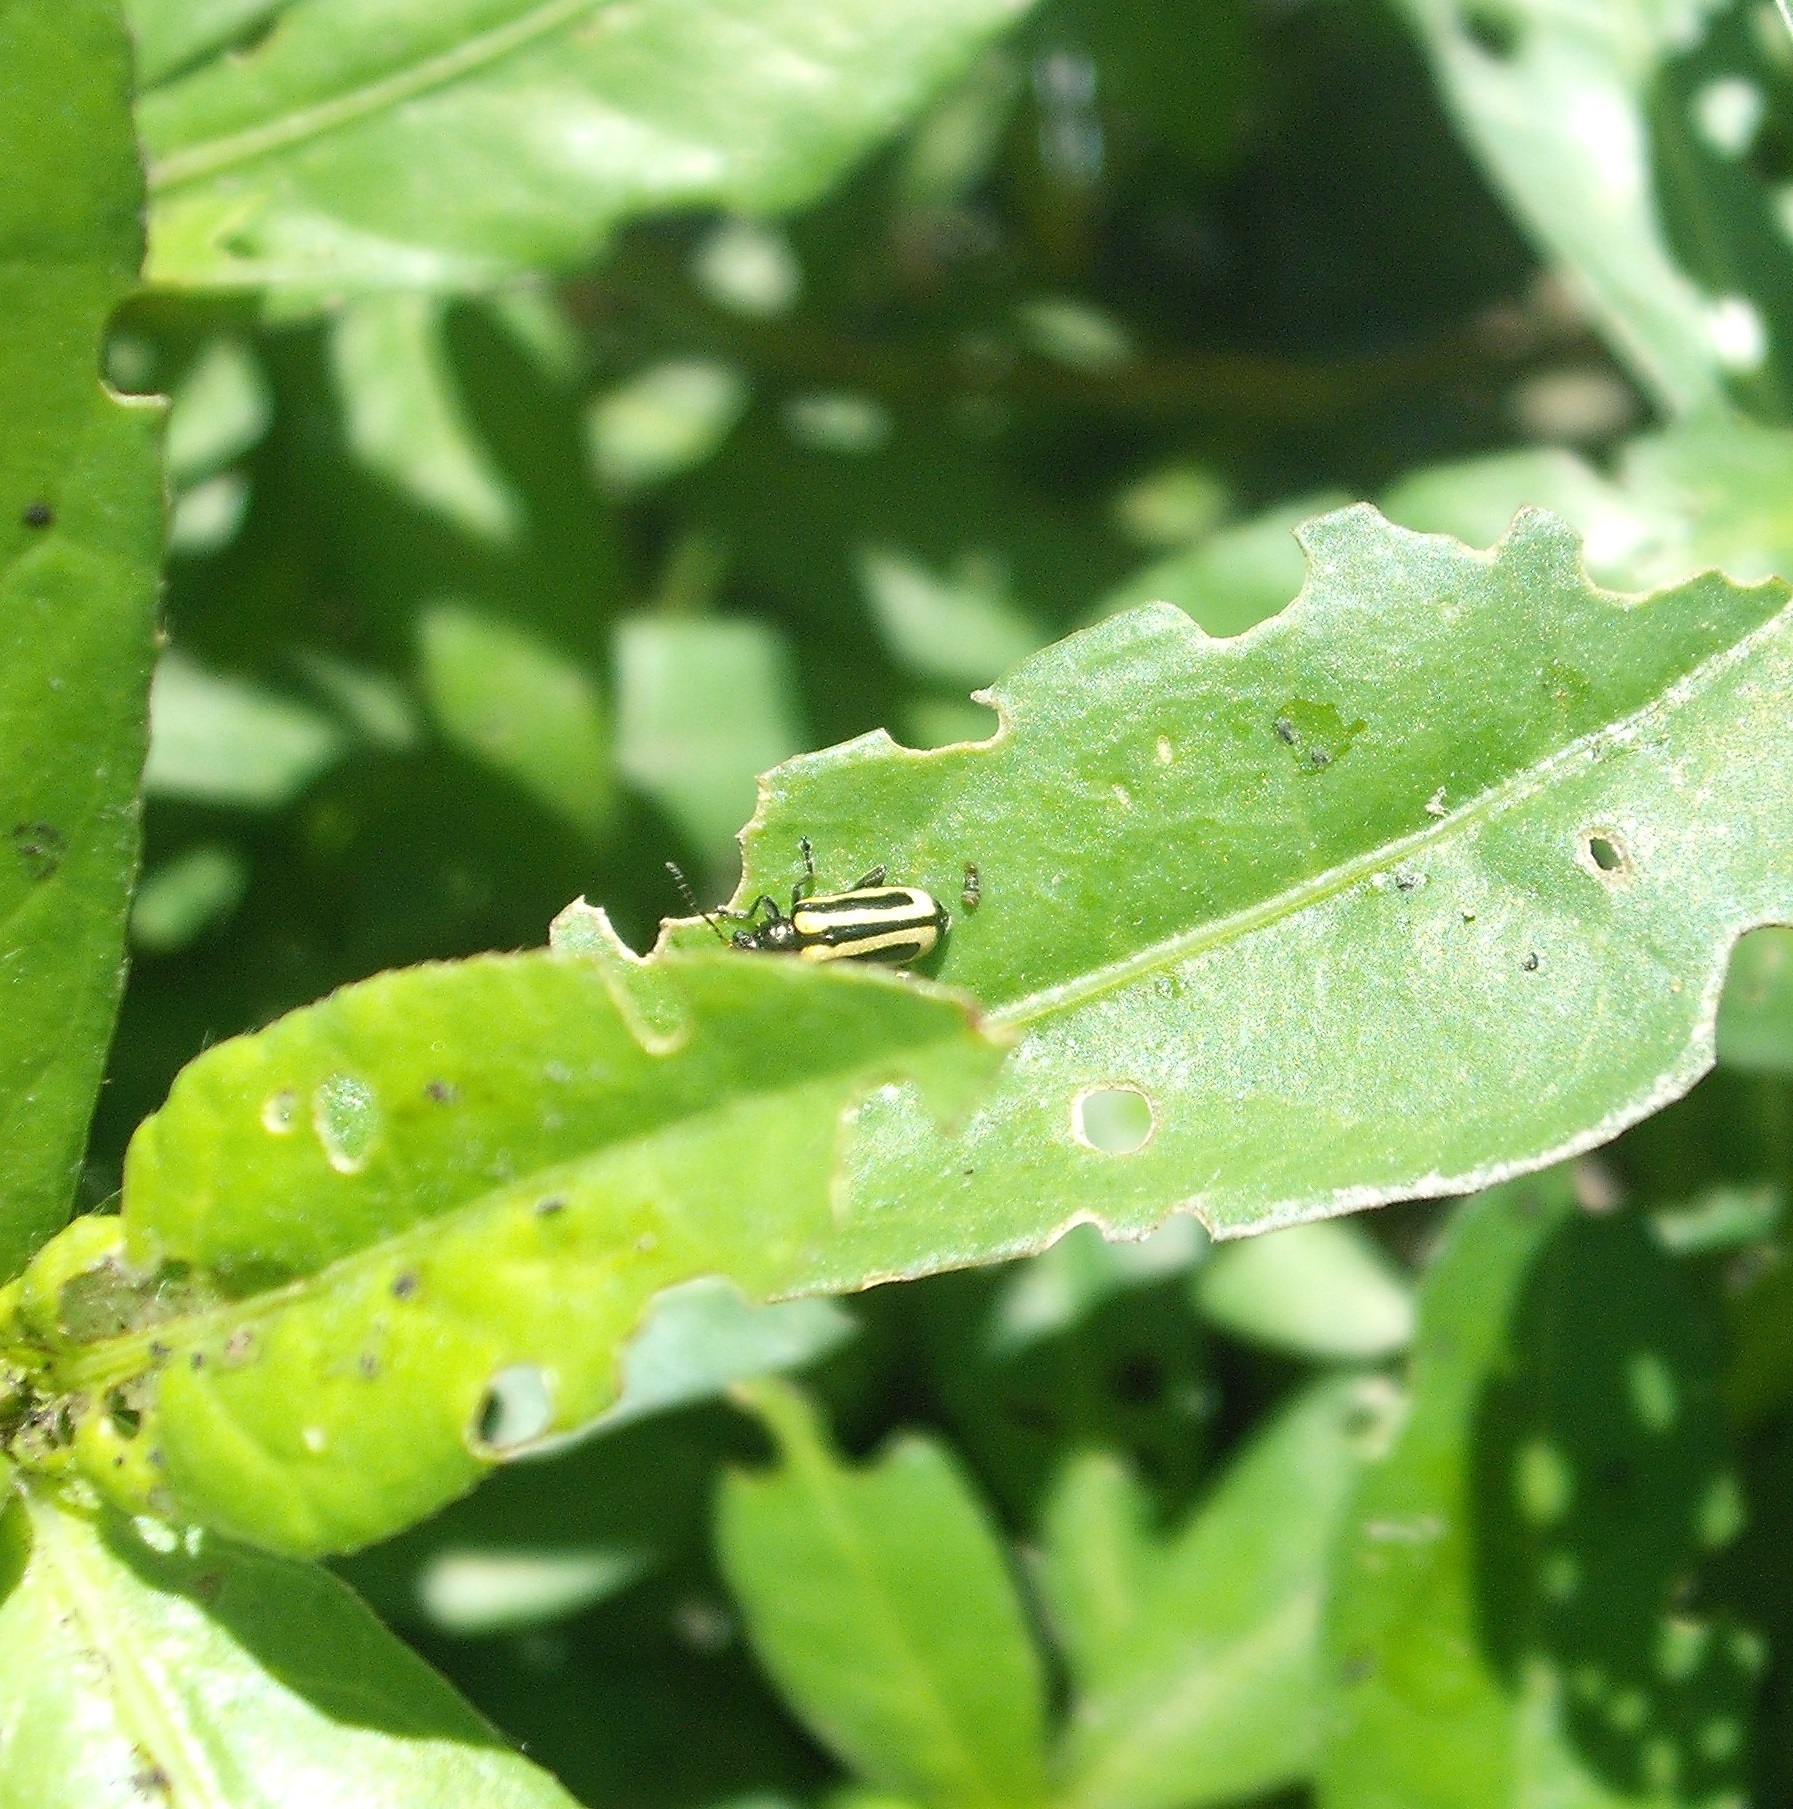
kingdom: Animalia
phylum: Arthropoda
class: Insecta
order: Coleoptera
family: Chrysomelidae
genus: Agasicles
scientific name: Agasicles hygrophila
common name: Alligatorweed flea beetle
